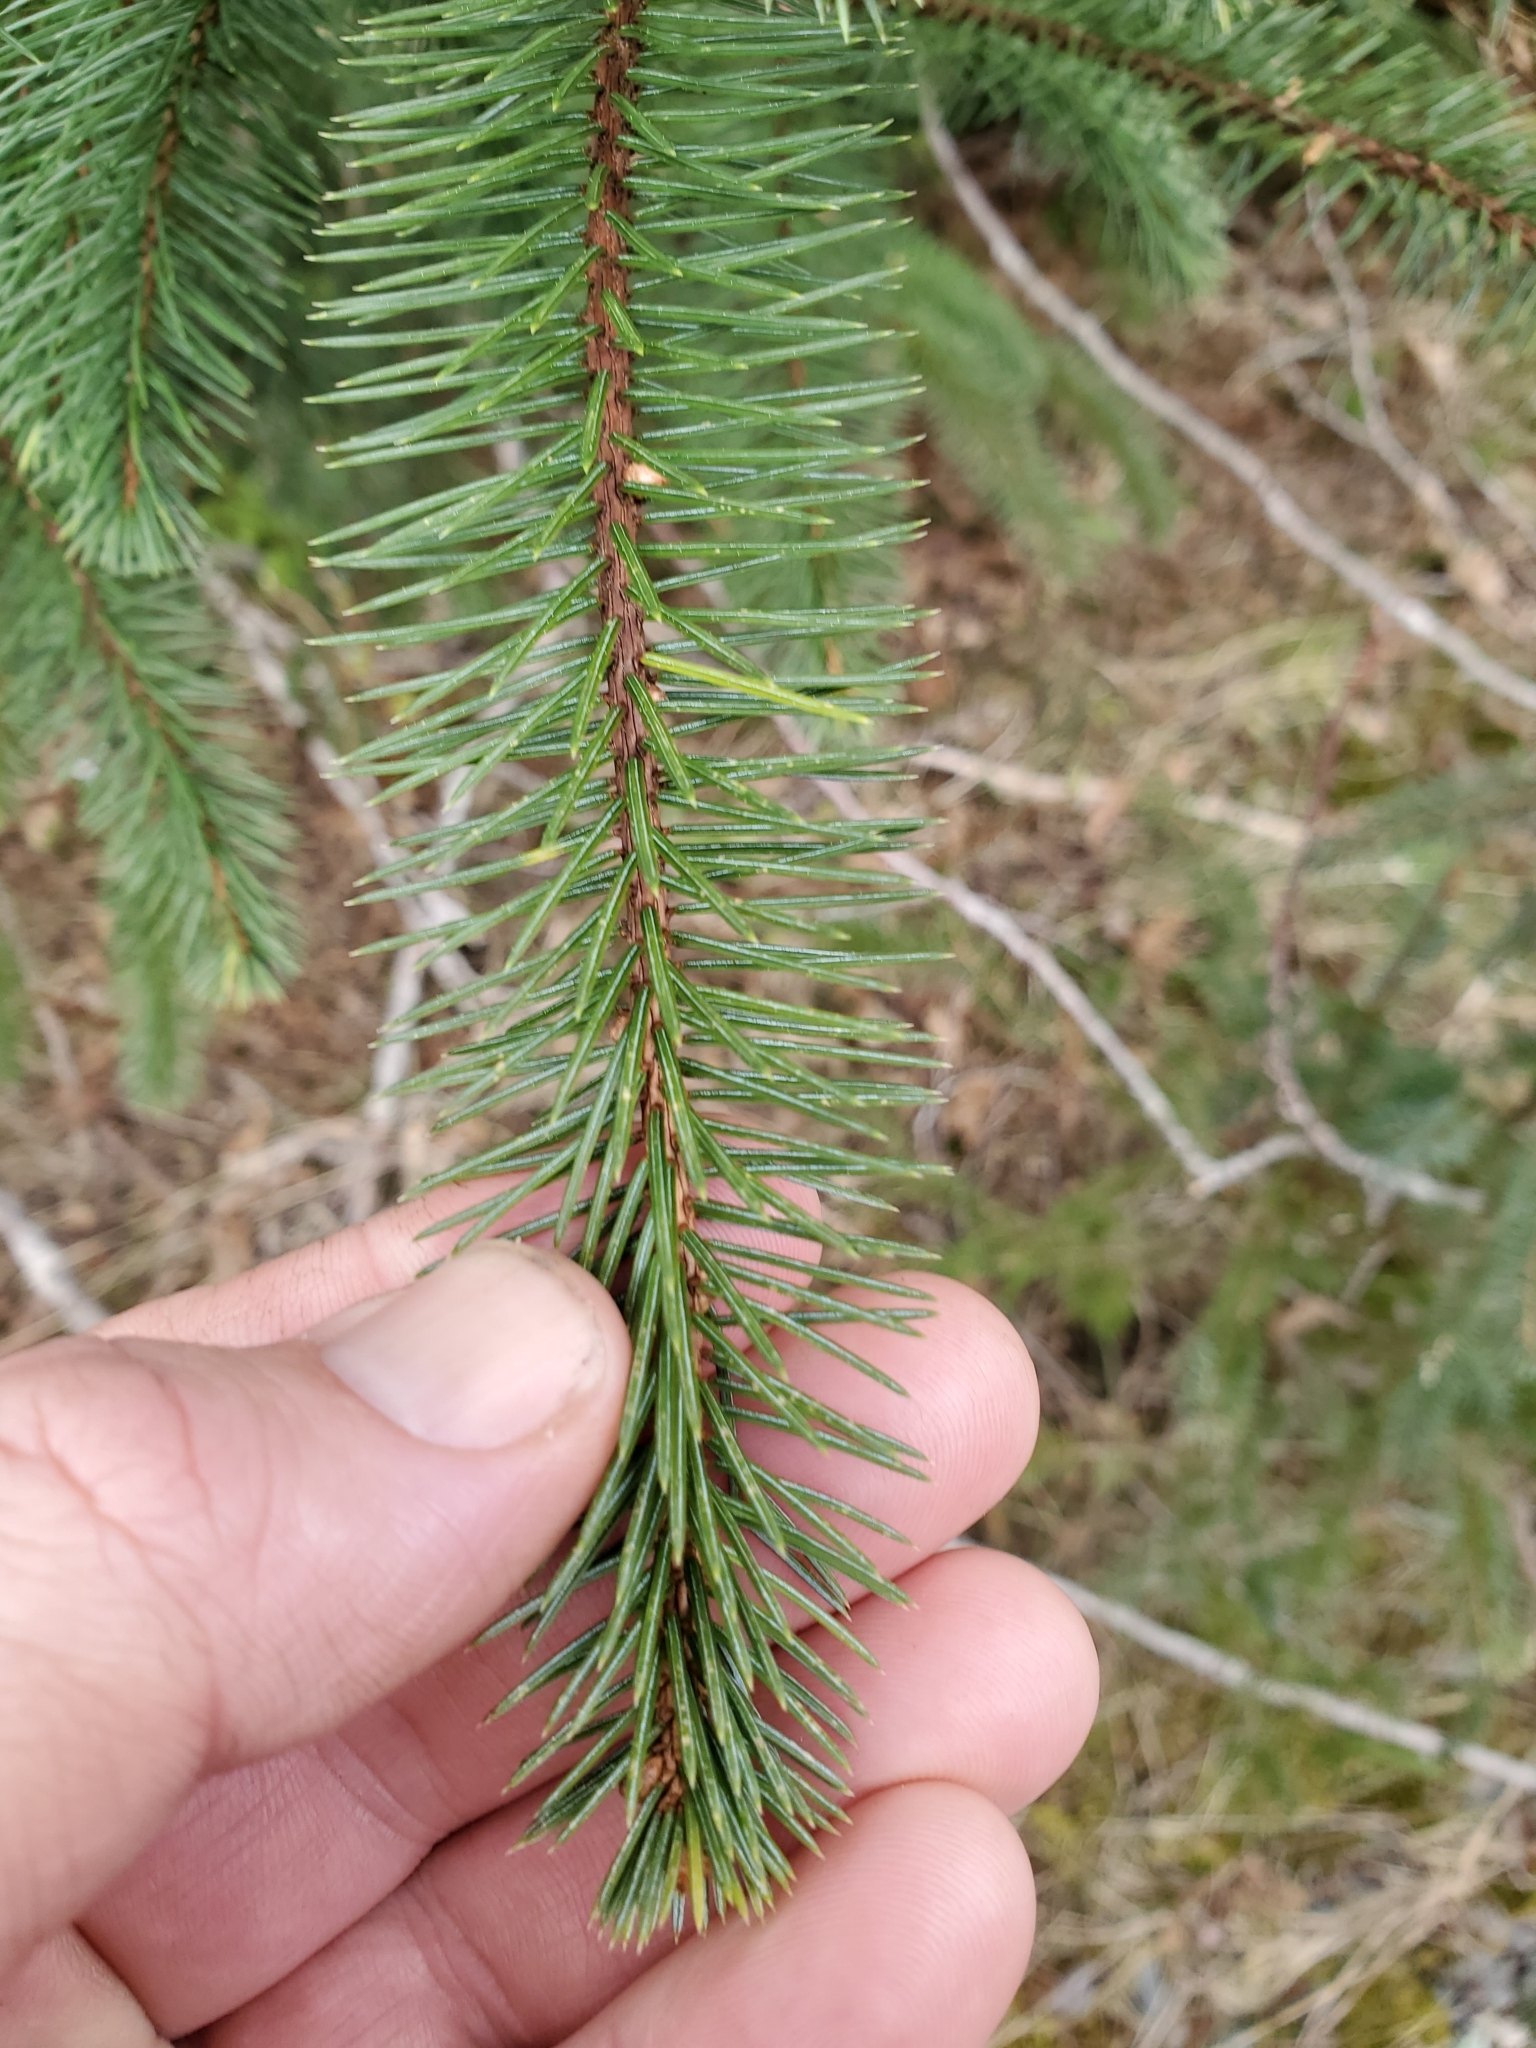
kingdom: Plantae
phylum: Tracheophyta
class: Pinopsida
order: Pinales
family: Pinaceae
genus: Picea
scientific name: Picea sitchensis
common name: Sitka spruce
